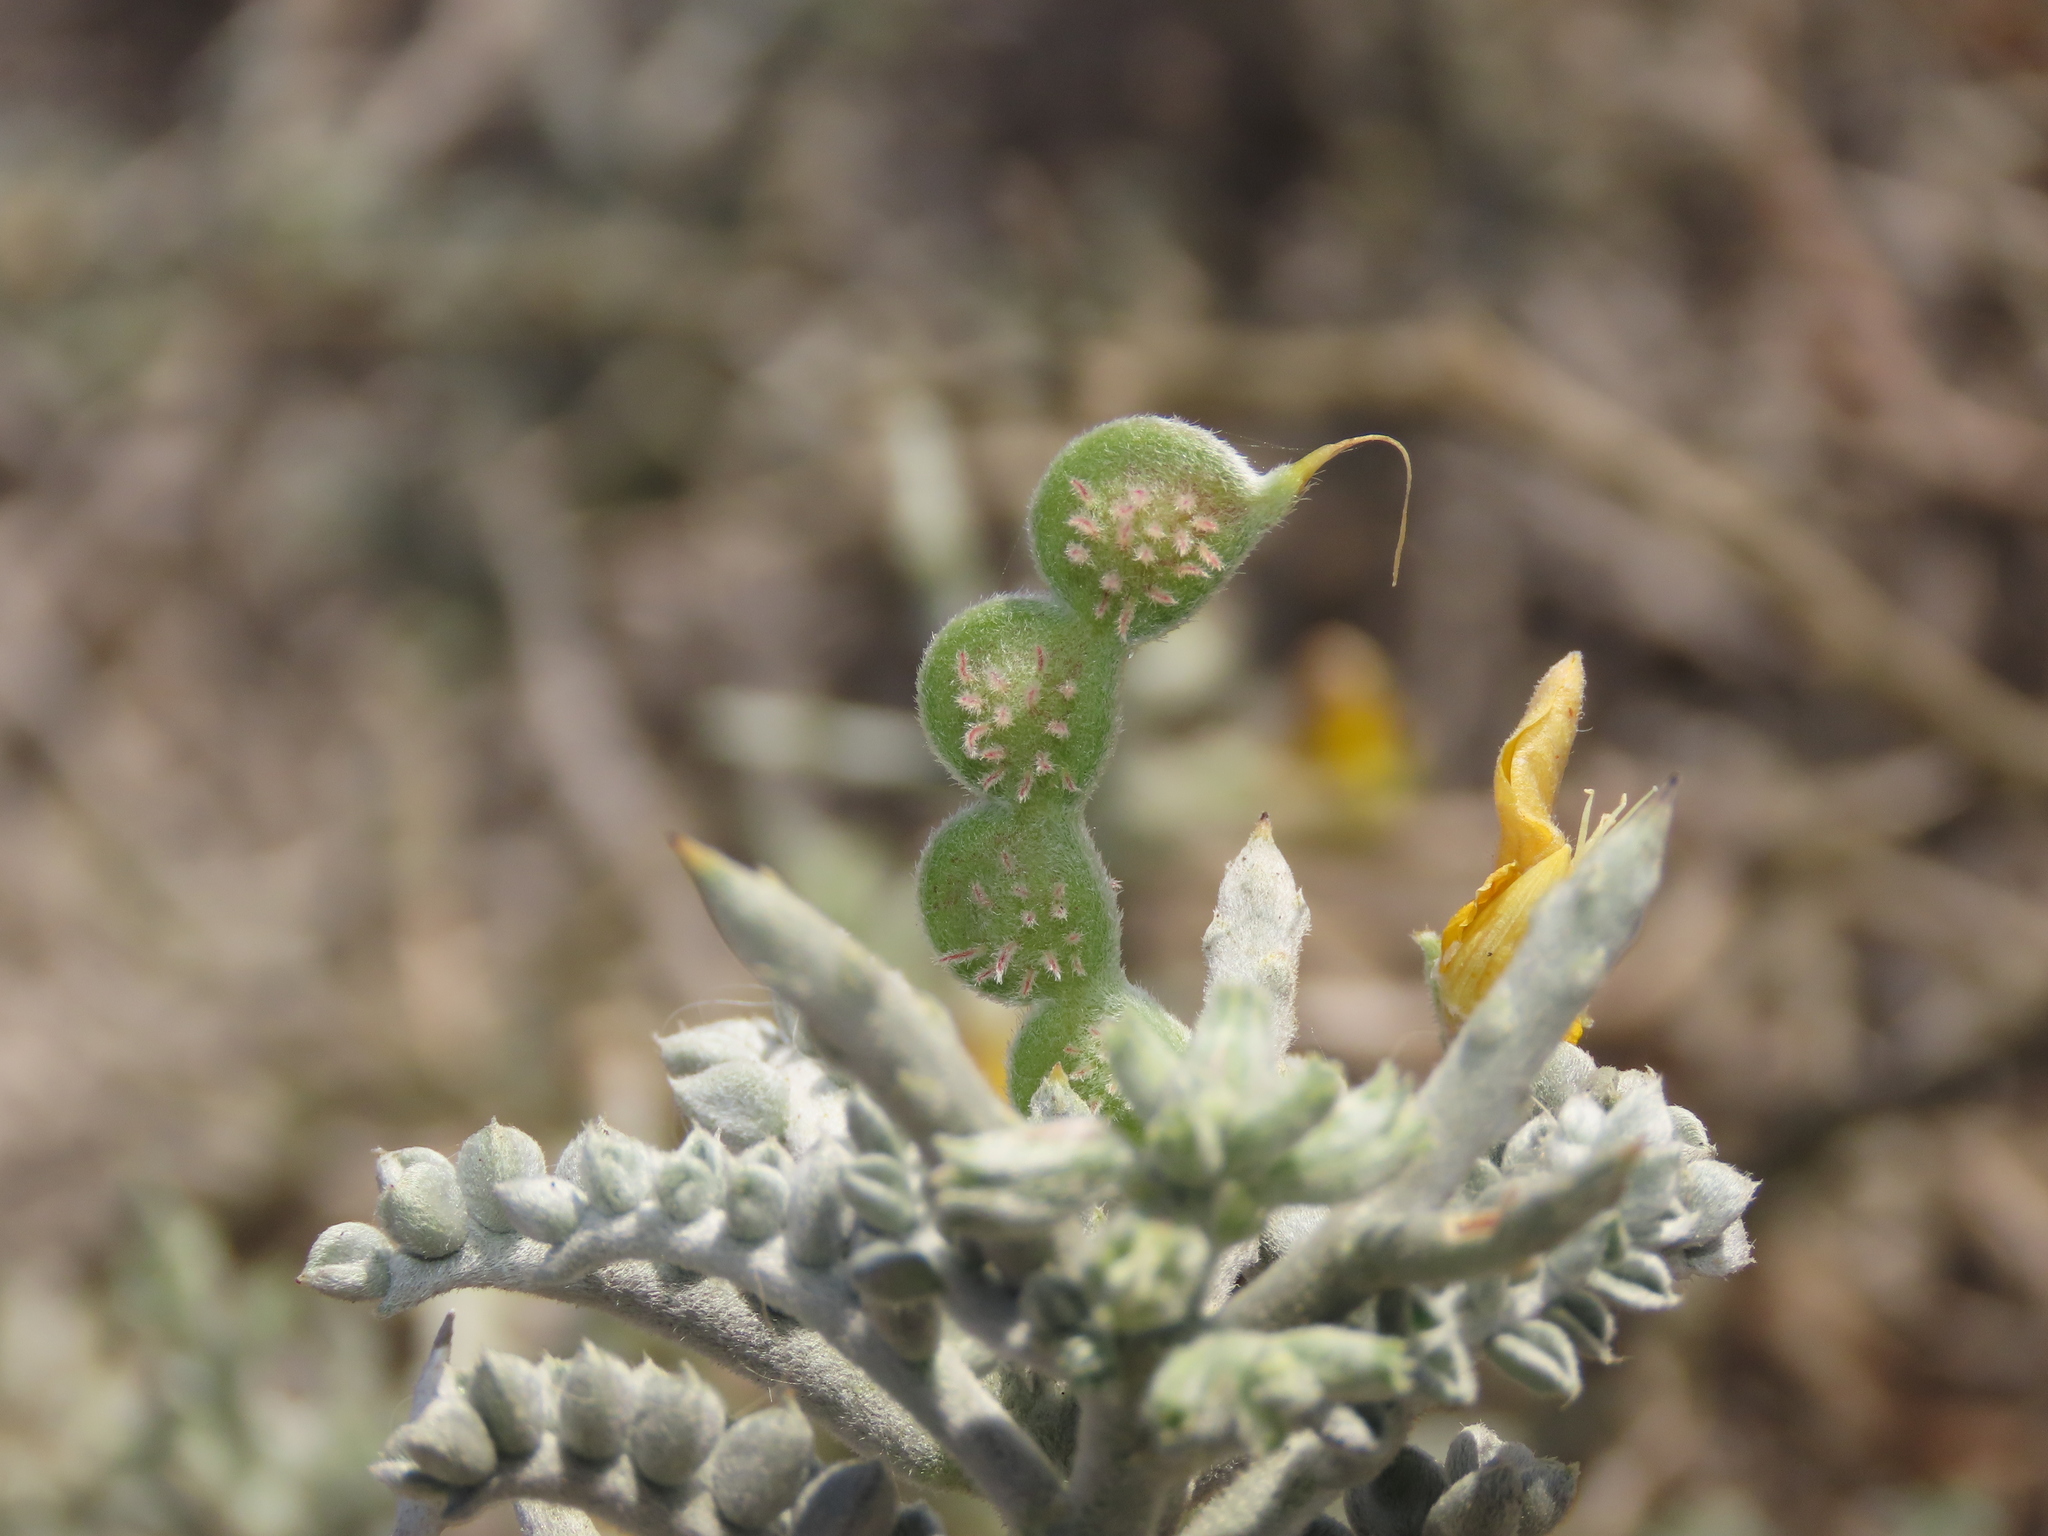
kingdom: Plantae
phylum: Tracheophyta
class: Magnoliopsida
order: Fabales
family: Fabaceae
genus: Adesmia
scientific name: Adesmia littoralis
